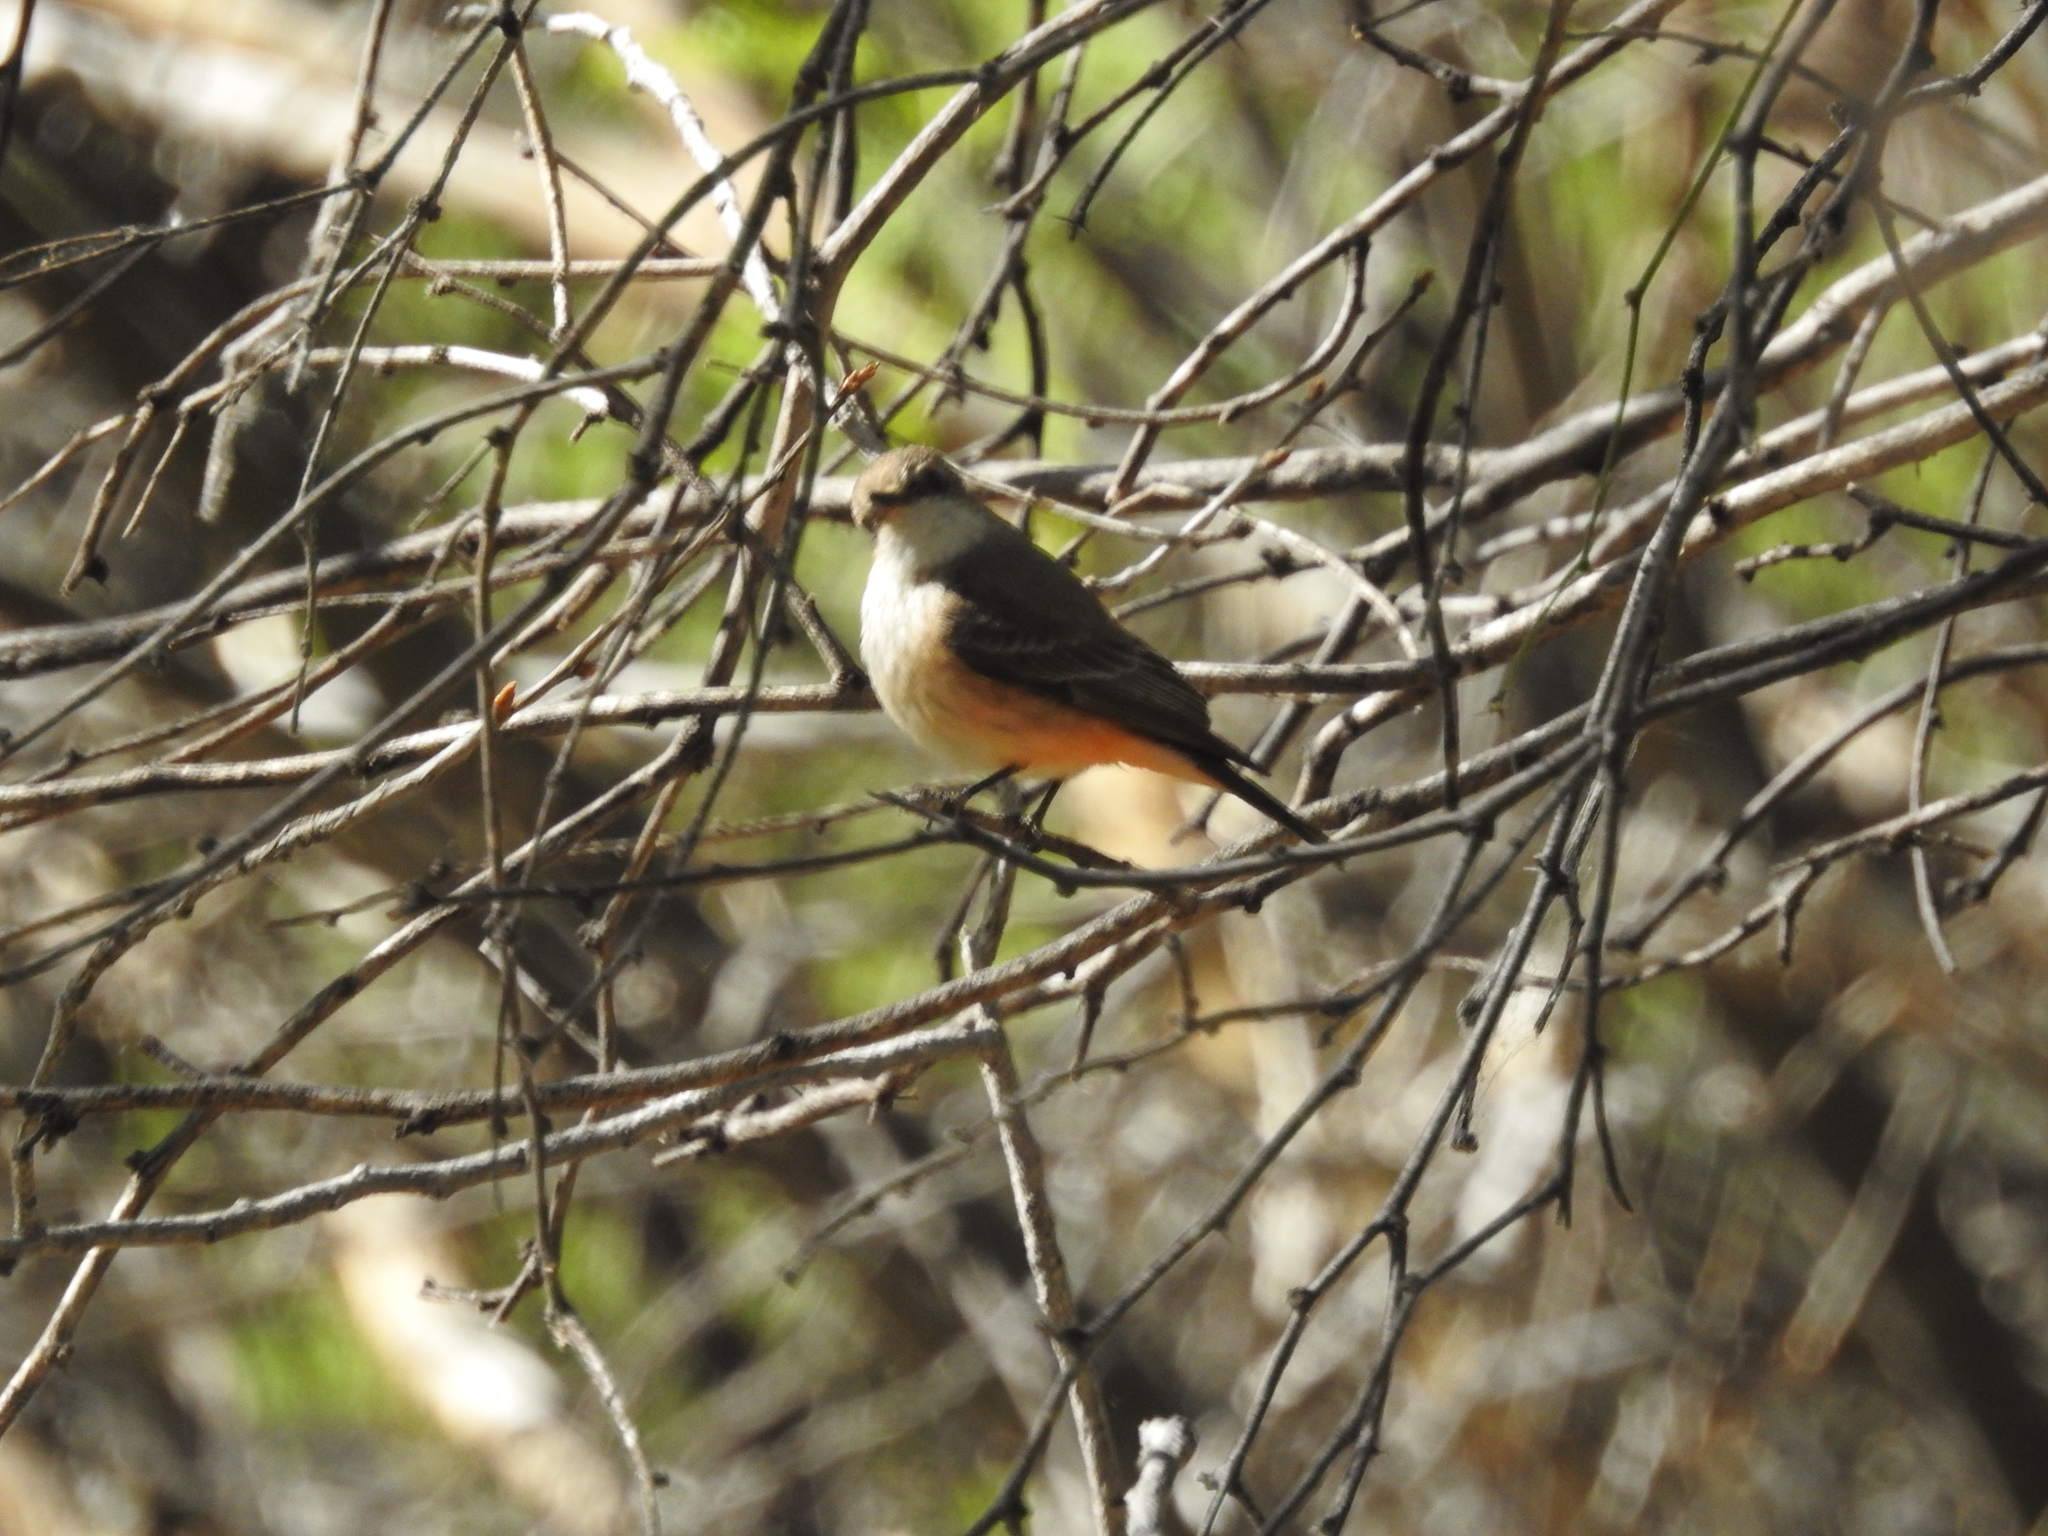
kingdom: Animalia
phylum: Chordata
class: Aves
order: Passeriformes
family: Tyrannidae
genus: Pyrocephalus
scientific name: Pyrocephalus rubinus
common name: Vermilion flycatcher
